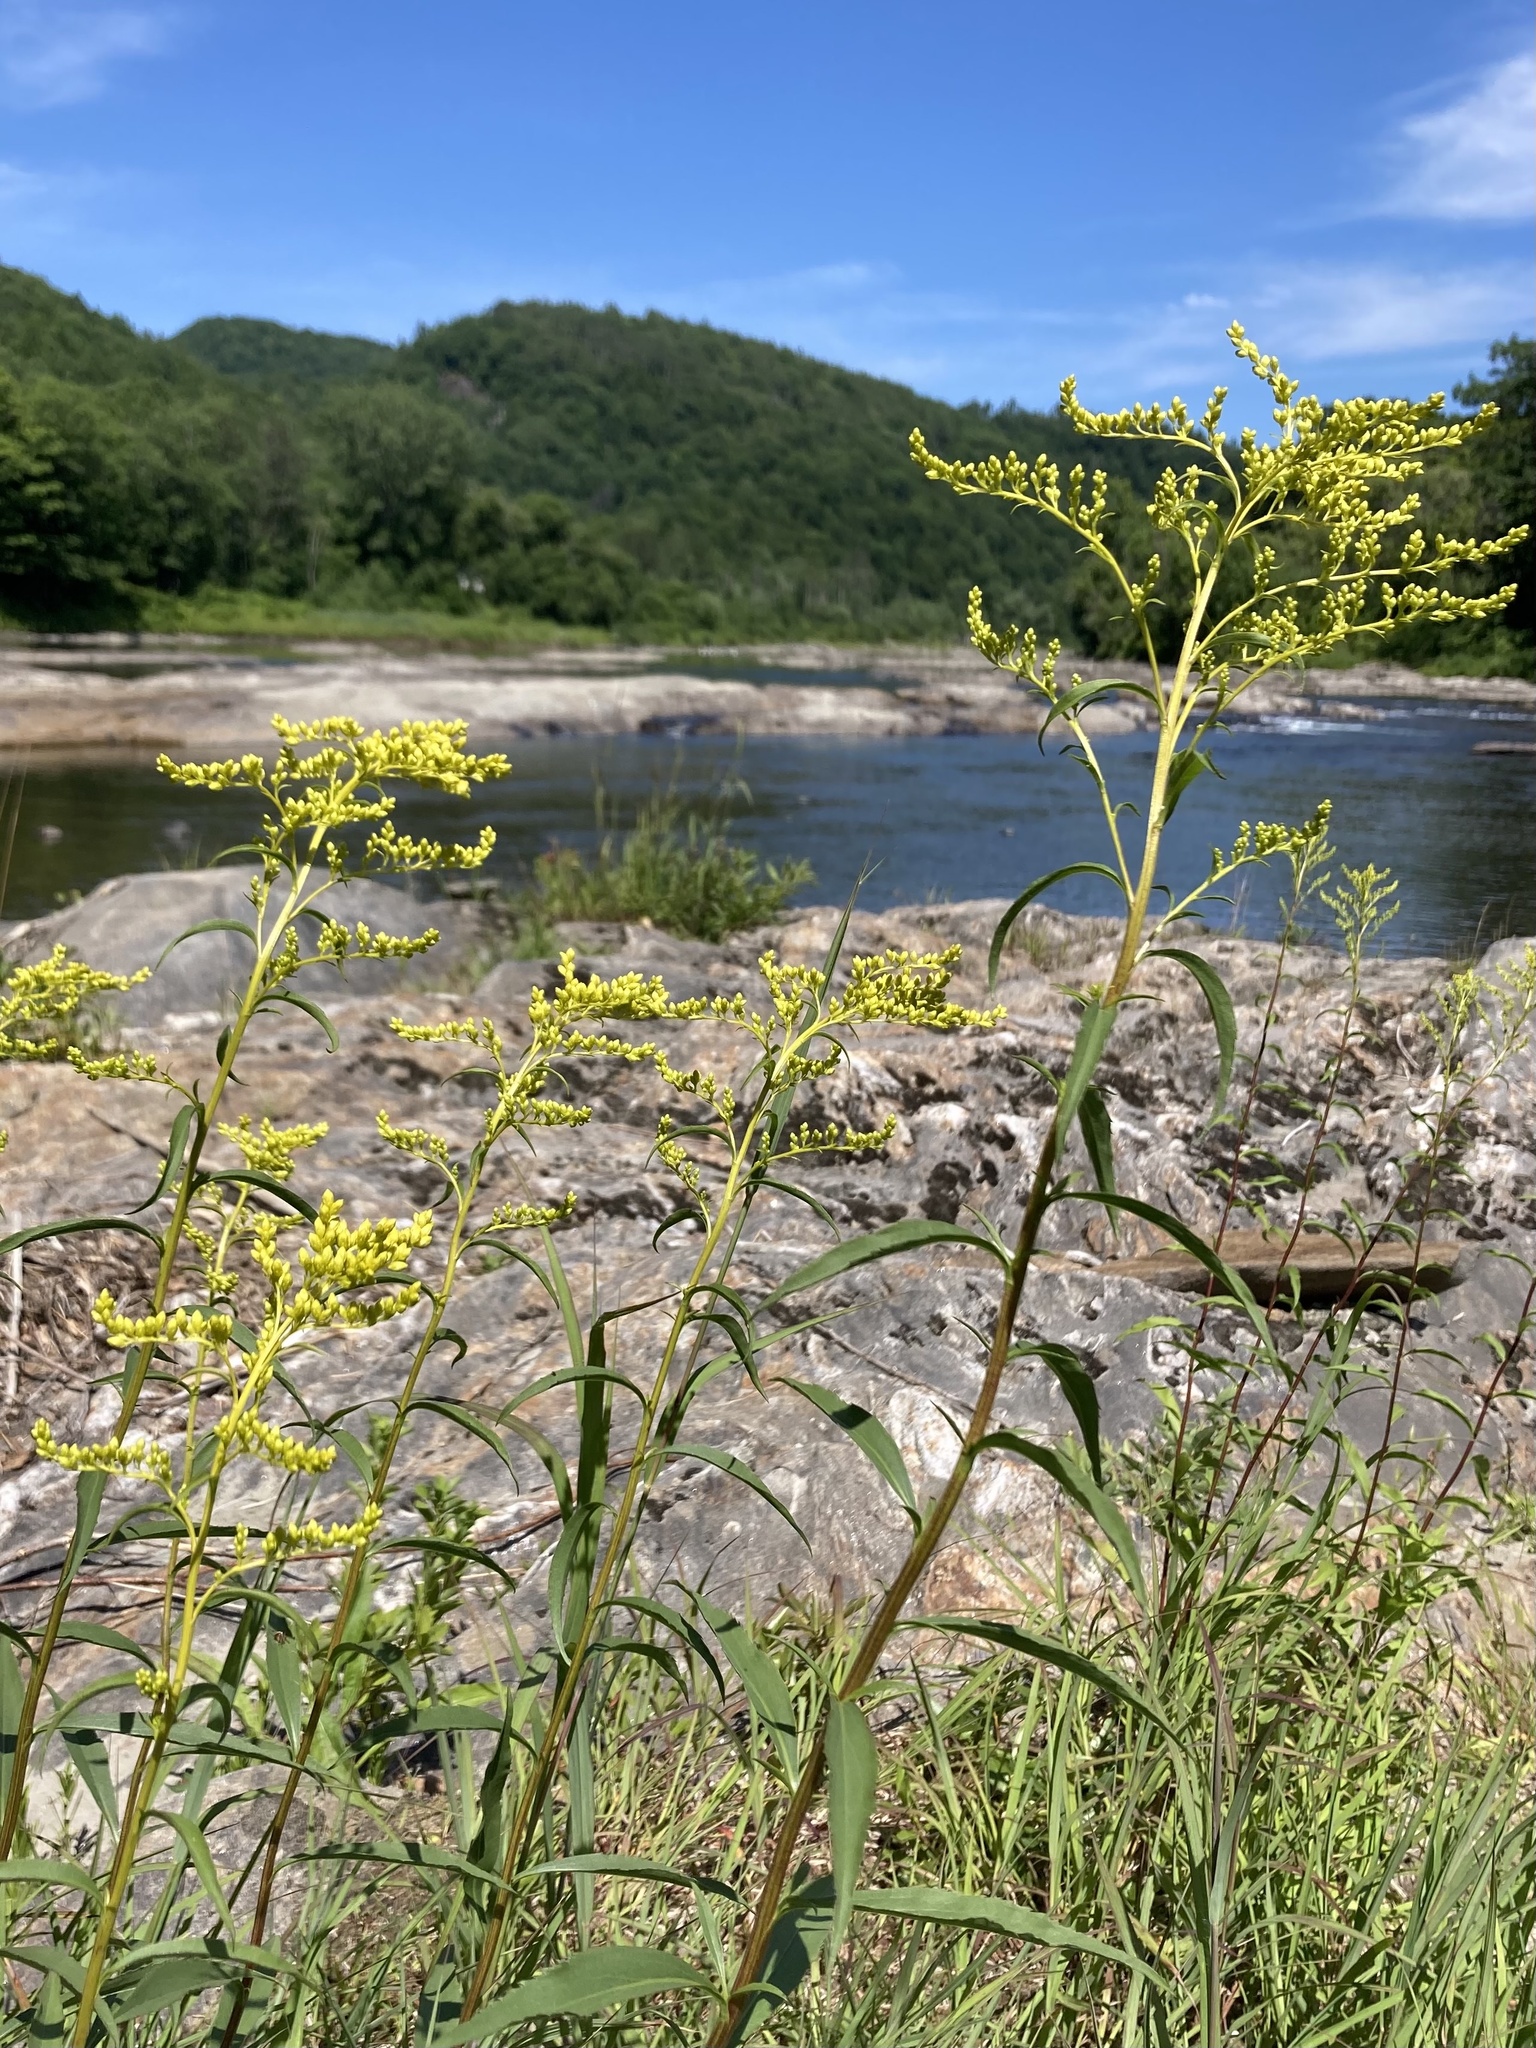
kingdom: Plantae
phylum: Tracheophyta
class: Magnoliopsida
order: Asterales
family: Asteraceae
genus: Solidago
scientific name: Solidago juncea
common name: Early goldenrod
